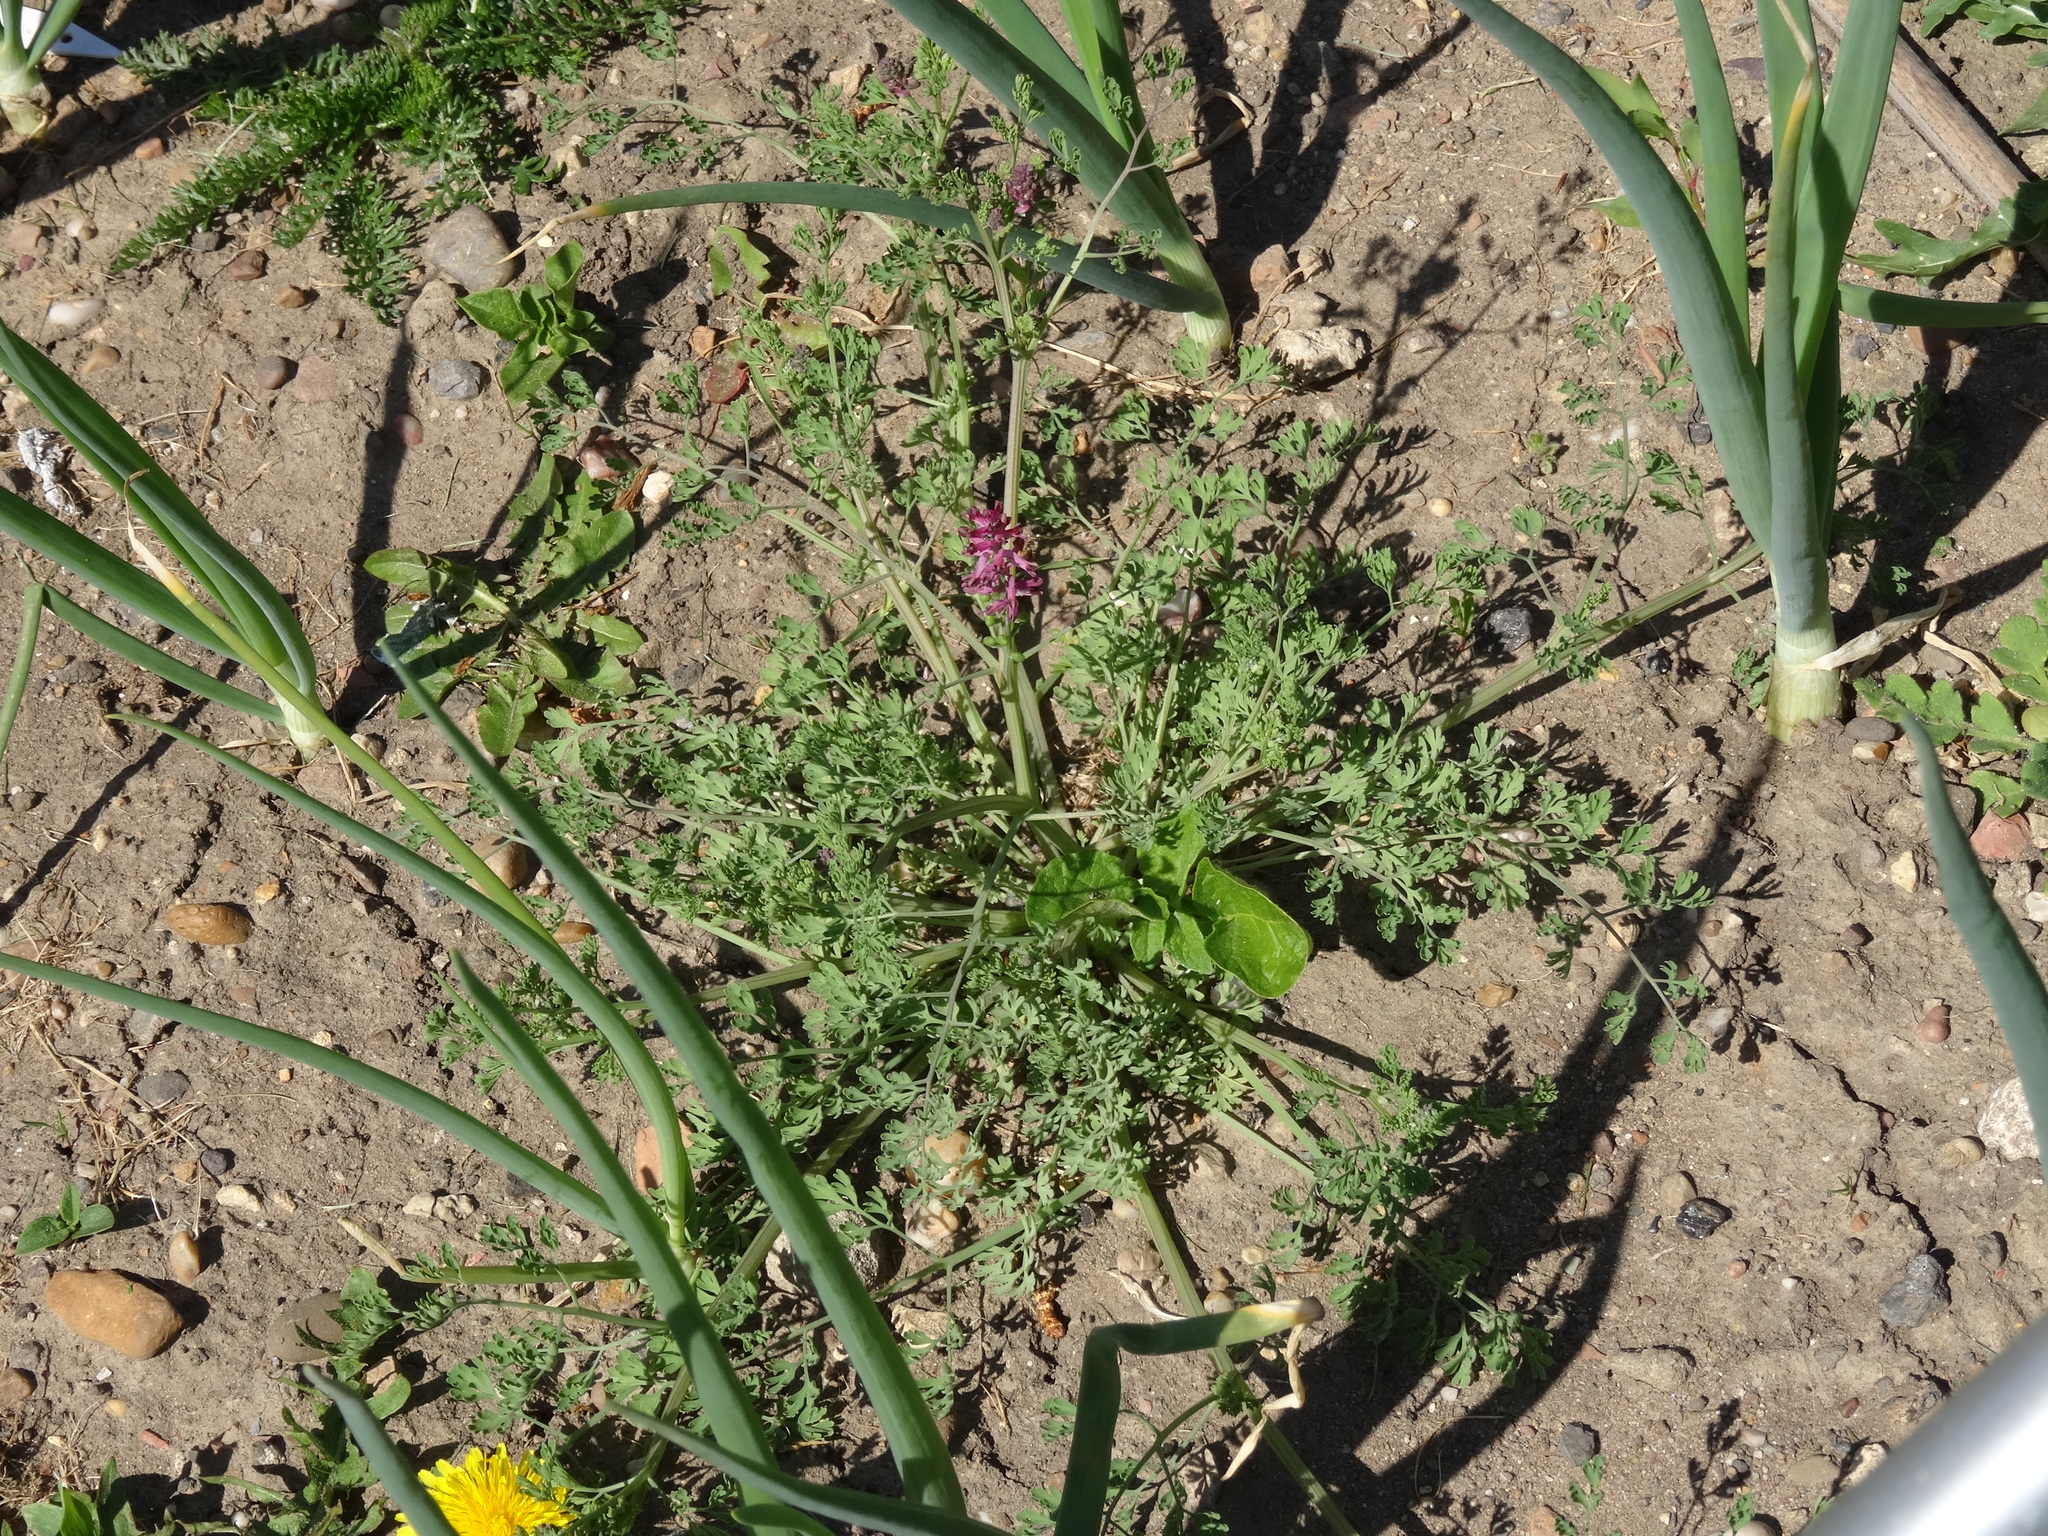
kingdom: Plantae
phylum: Tracheophyta
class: Magnoliopsida
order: Ranunculales
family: Papaveraceae
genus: Fumaria
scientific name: Fumaria officinalis
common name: Common fumitory
